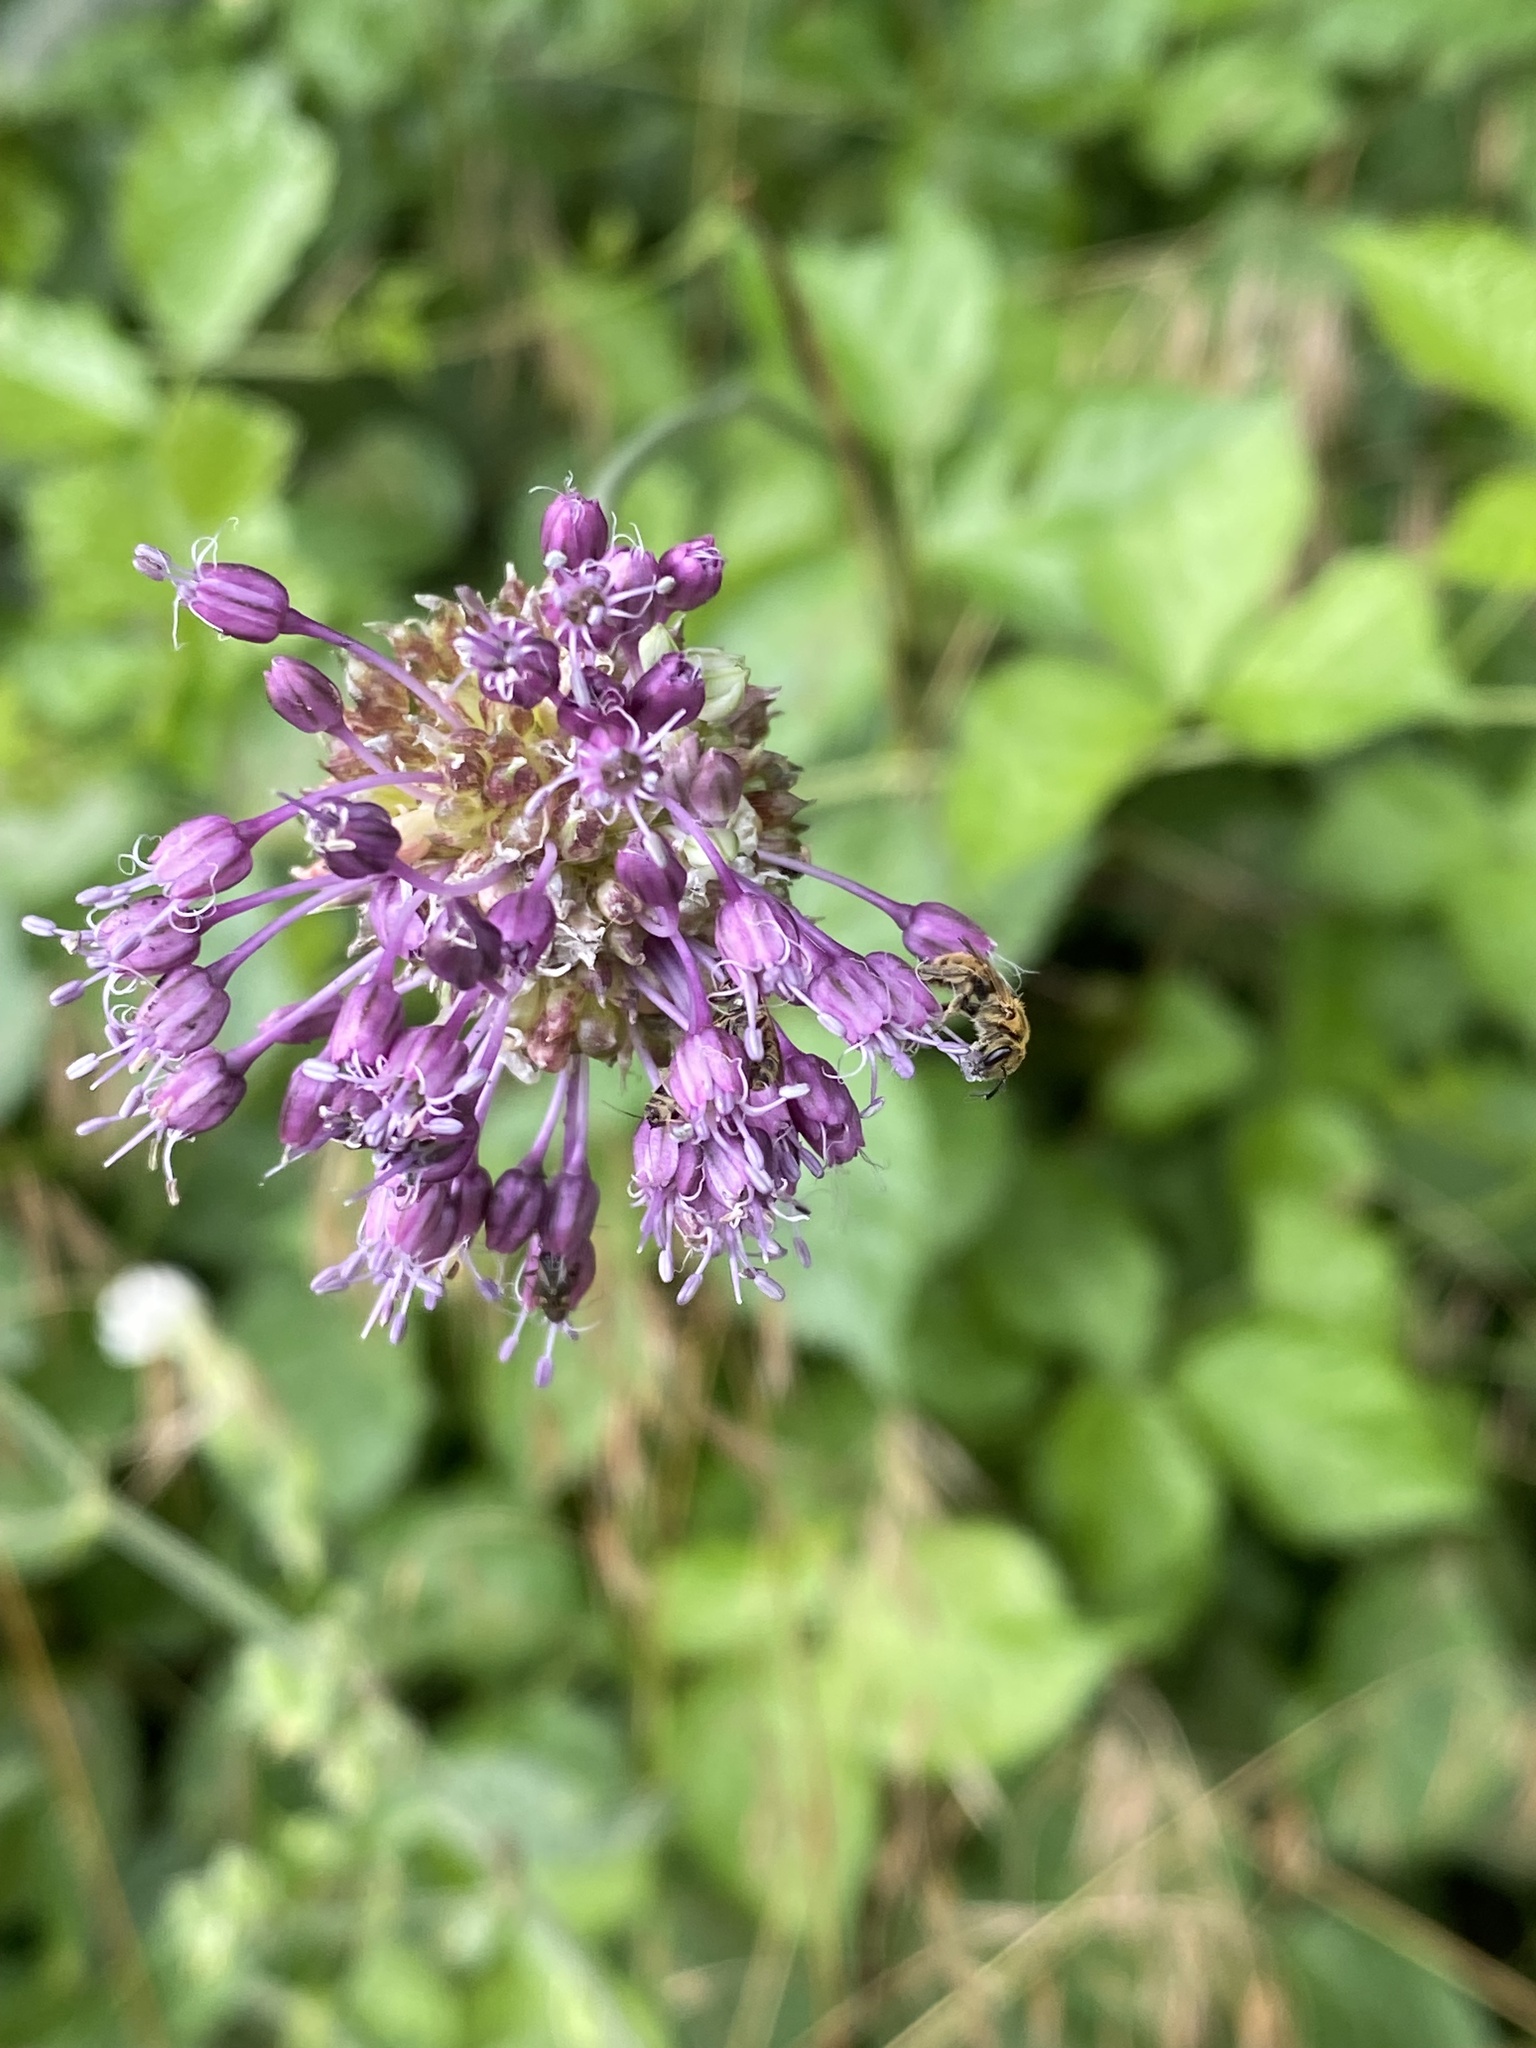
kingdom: Plantae
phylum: Tracheophyta
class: Liliopsida
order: Asparagales
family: Amaryllidaceae
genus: Allium
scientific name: Allium vineale
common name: Crow garlic
